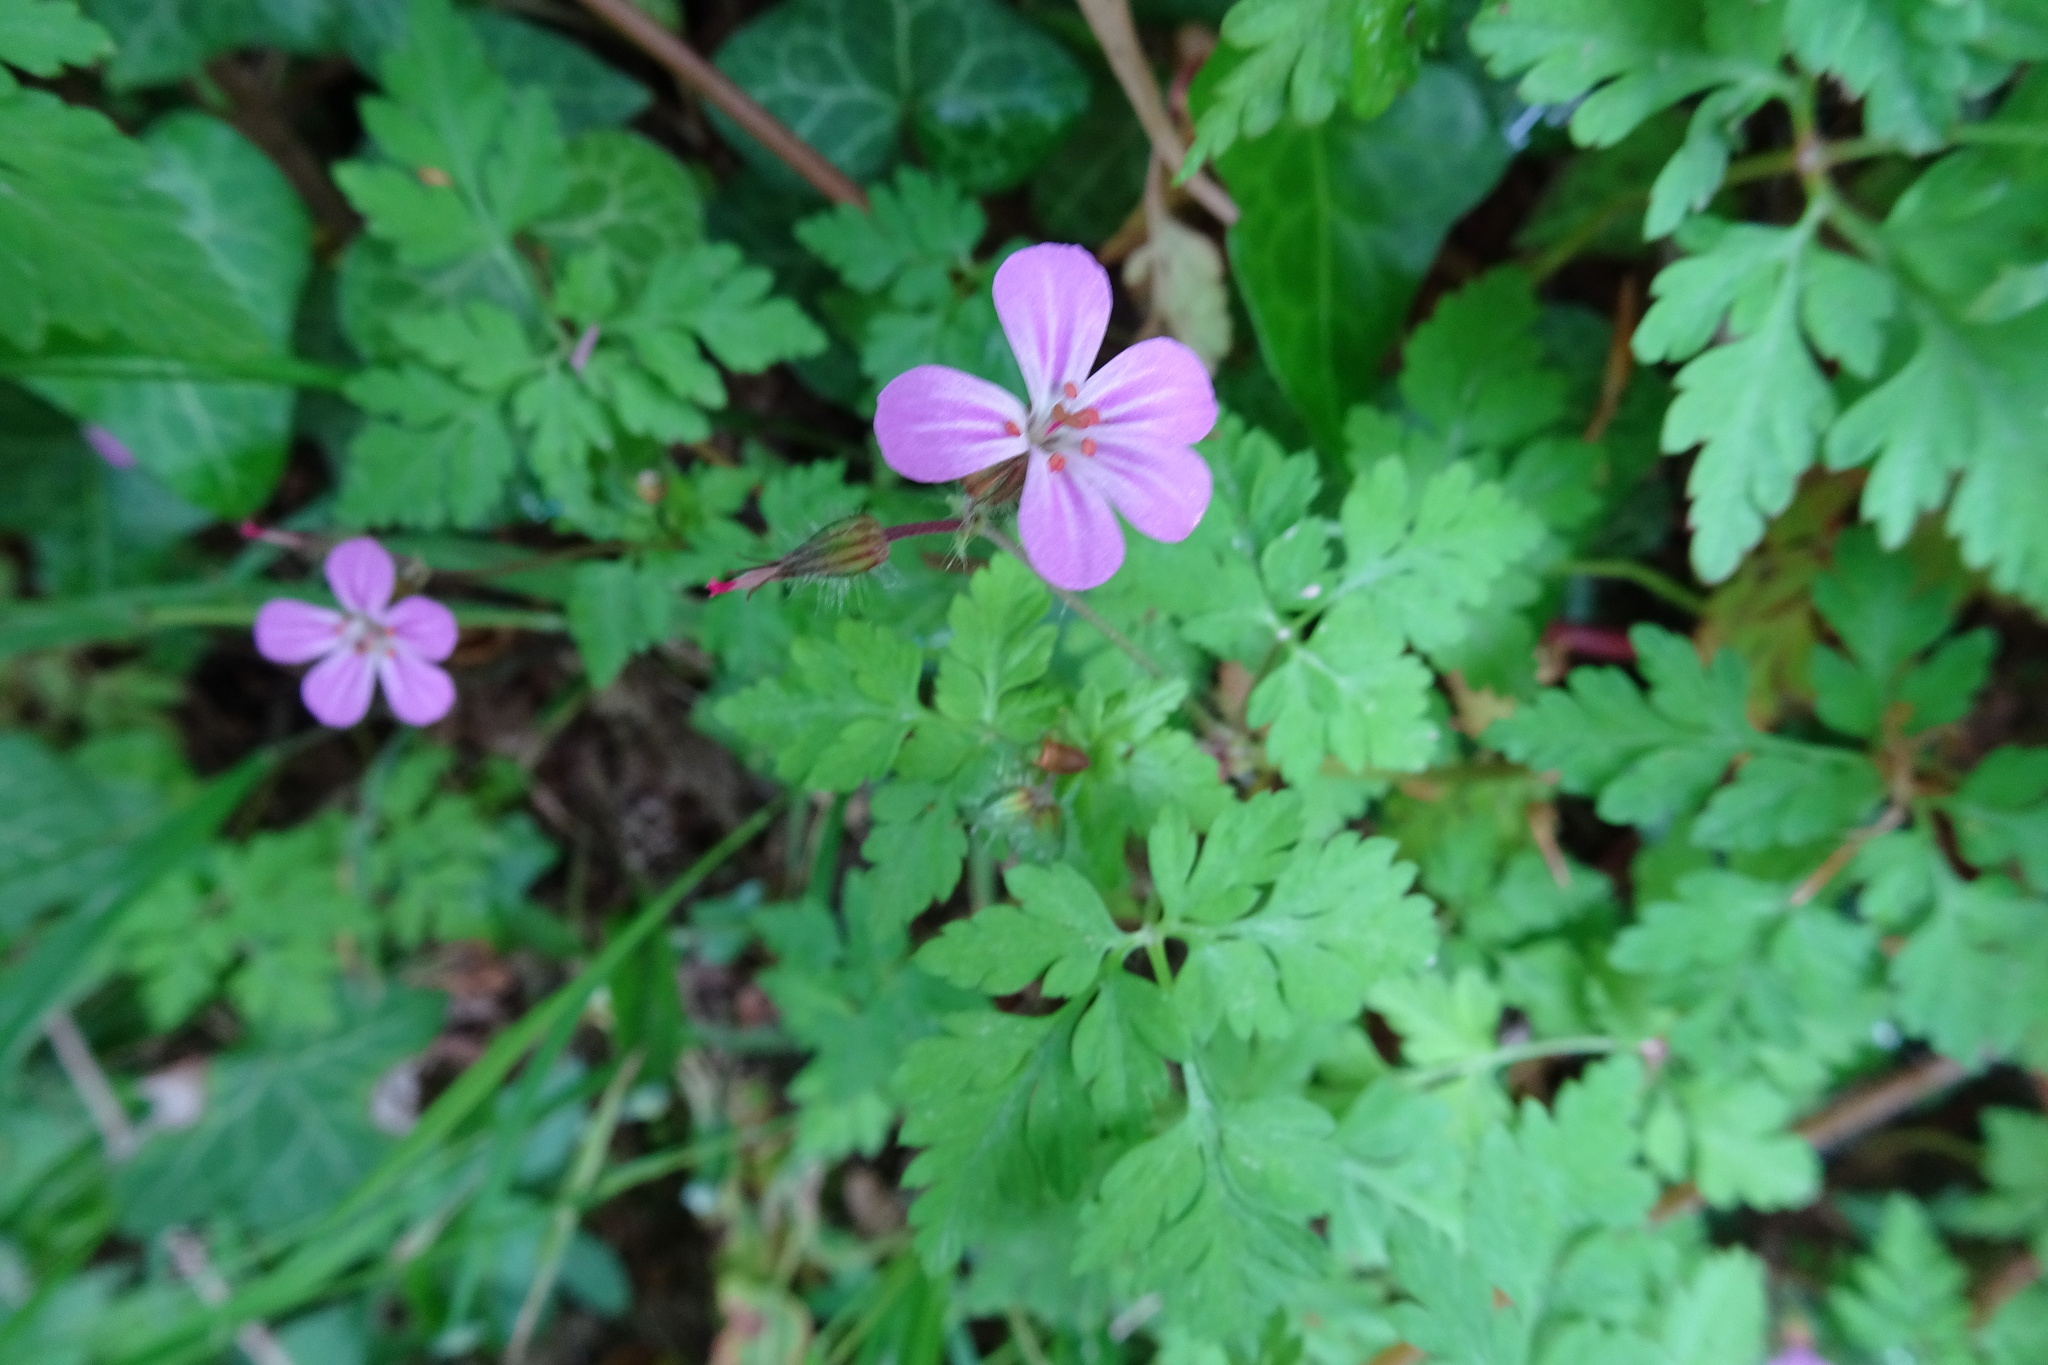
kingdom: Plantae
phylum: Tracheophyta
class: Magnoliopsida
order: Geraniales
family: Geraniaceae
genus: Geranium
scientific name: Geranium robertianum
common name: Herb-robert
